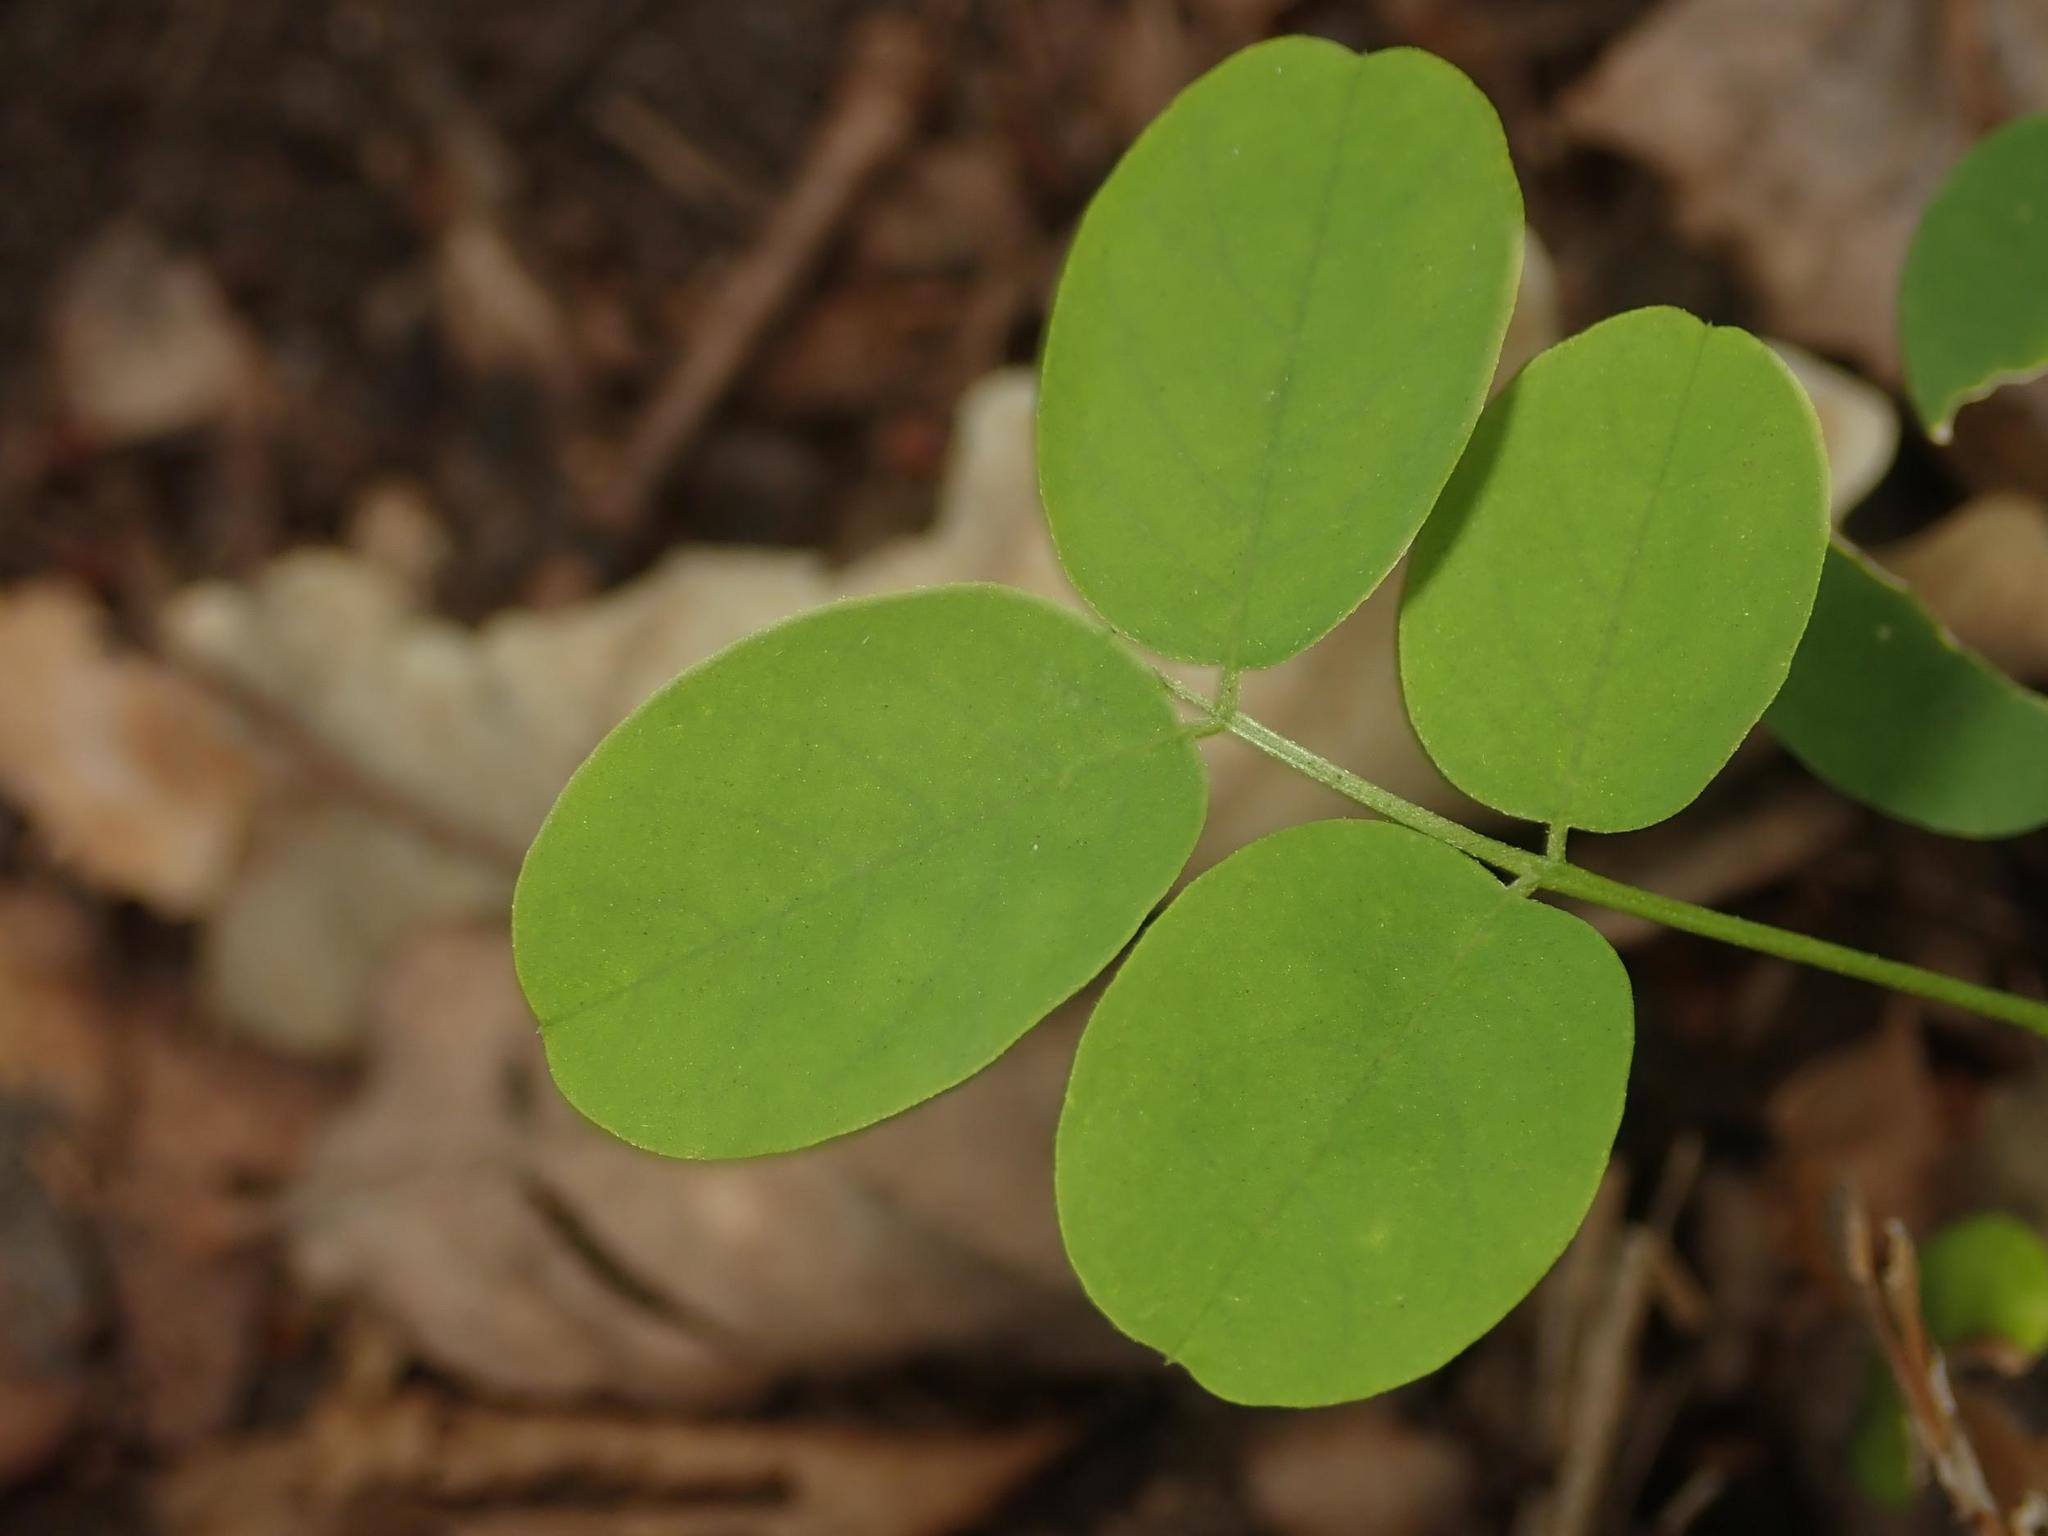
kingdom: Plantae
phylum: Tracheophyta
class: Magnoliopsida
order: Fabales
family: Fabaceae
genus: Robinia
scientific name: Robinia pseudoacacia
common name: Black locust
